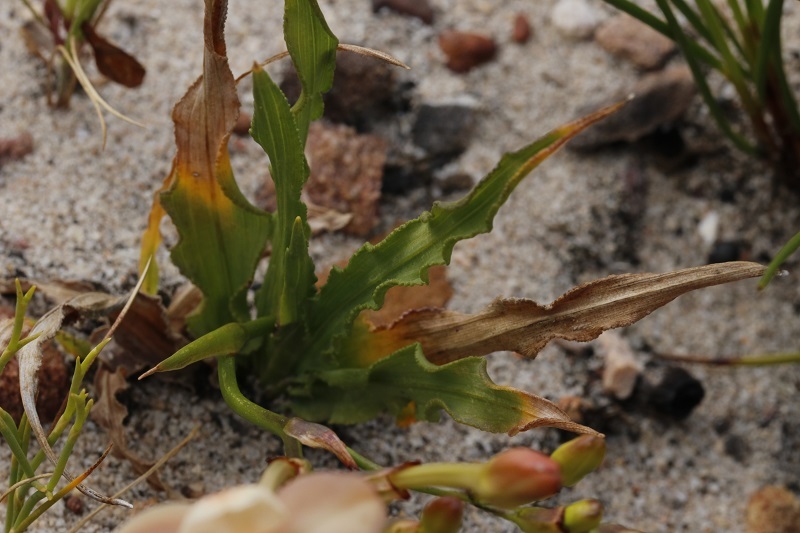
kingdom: Plantae
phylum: Tracheophyta
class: Liliopsida
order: Asparagales
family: Iridaceae
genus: Tritonia
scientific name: Tritonia undulata
